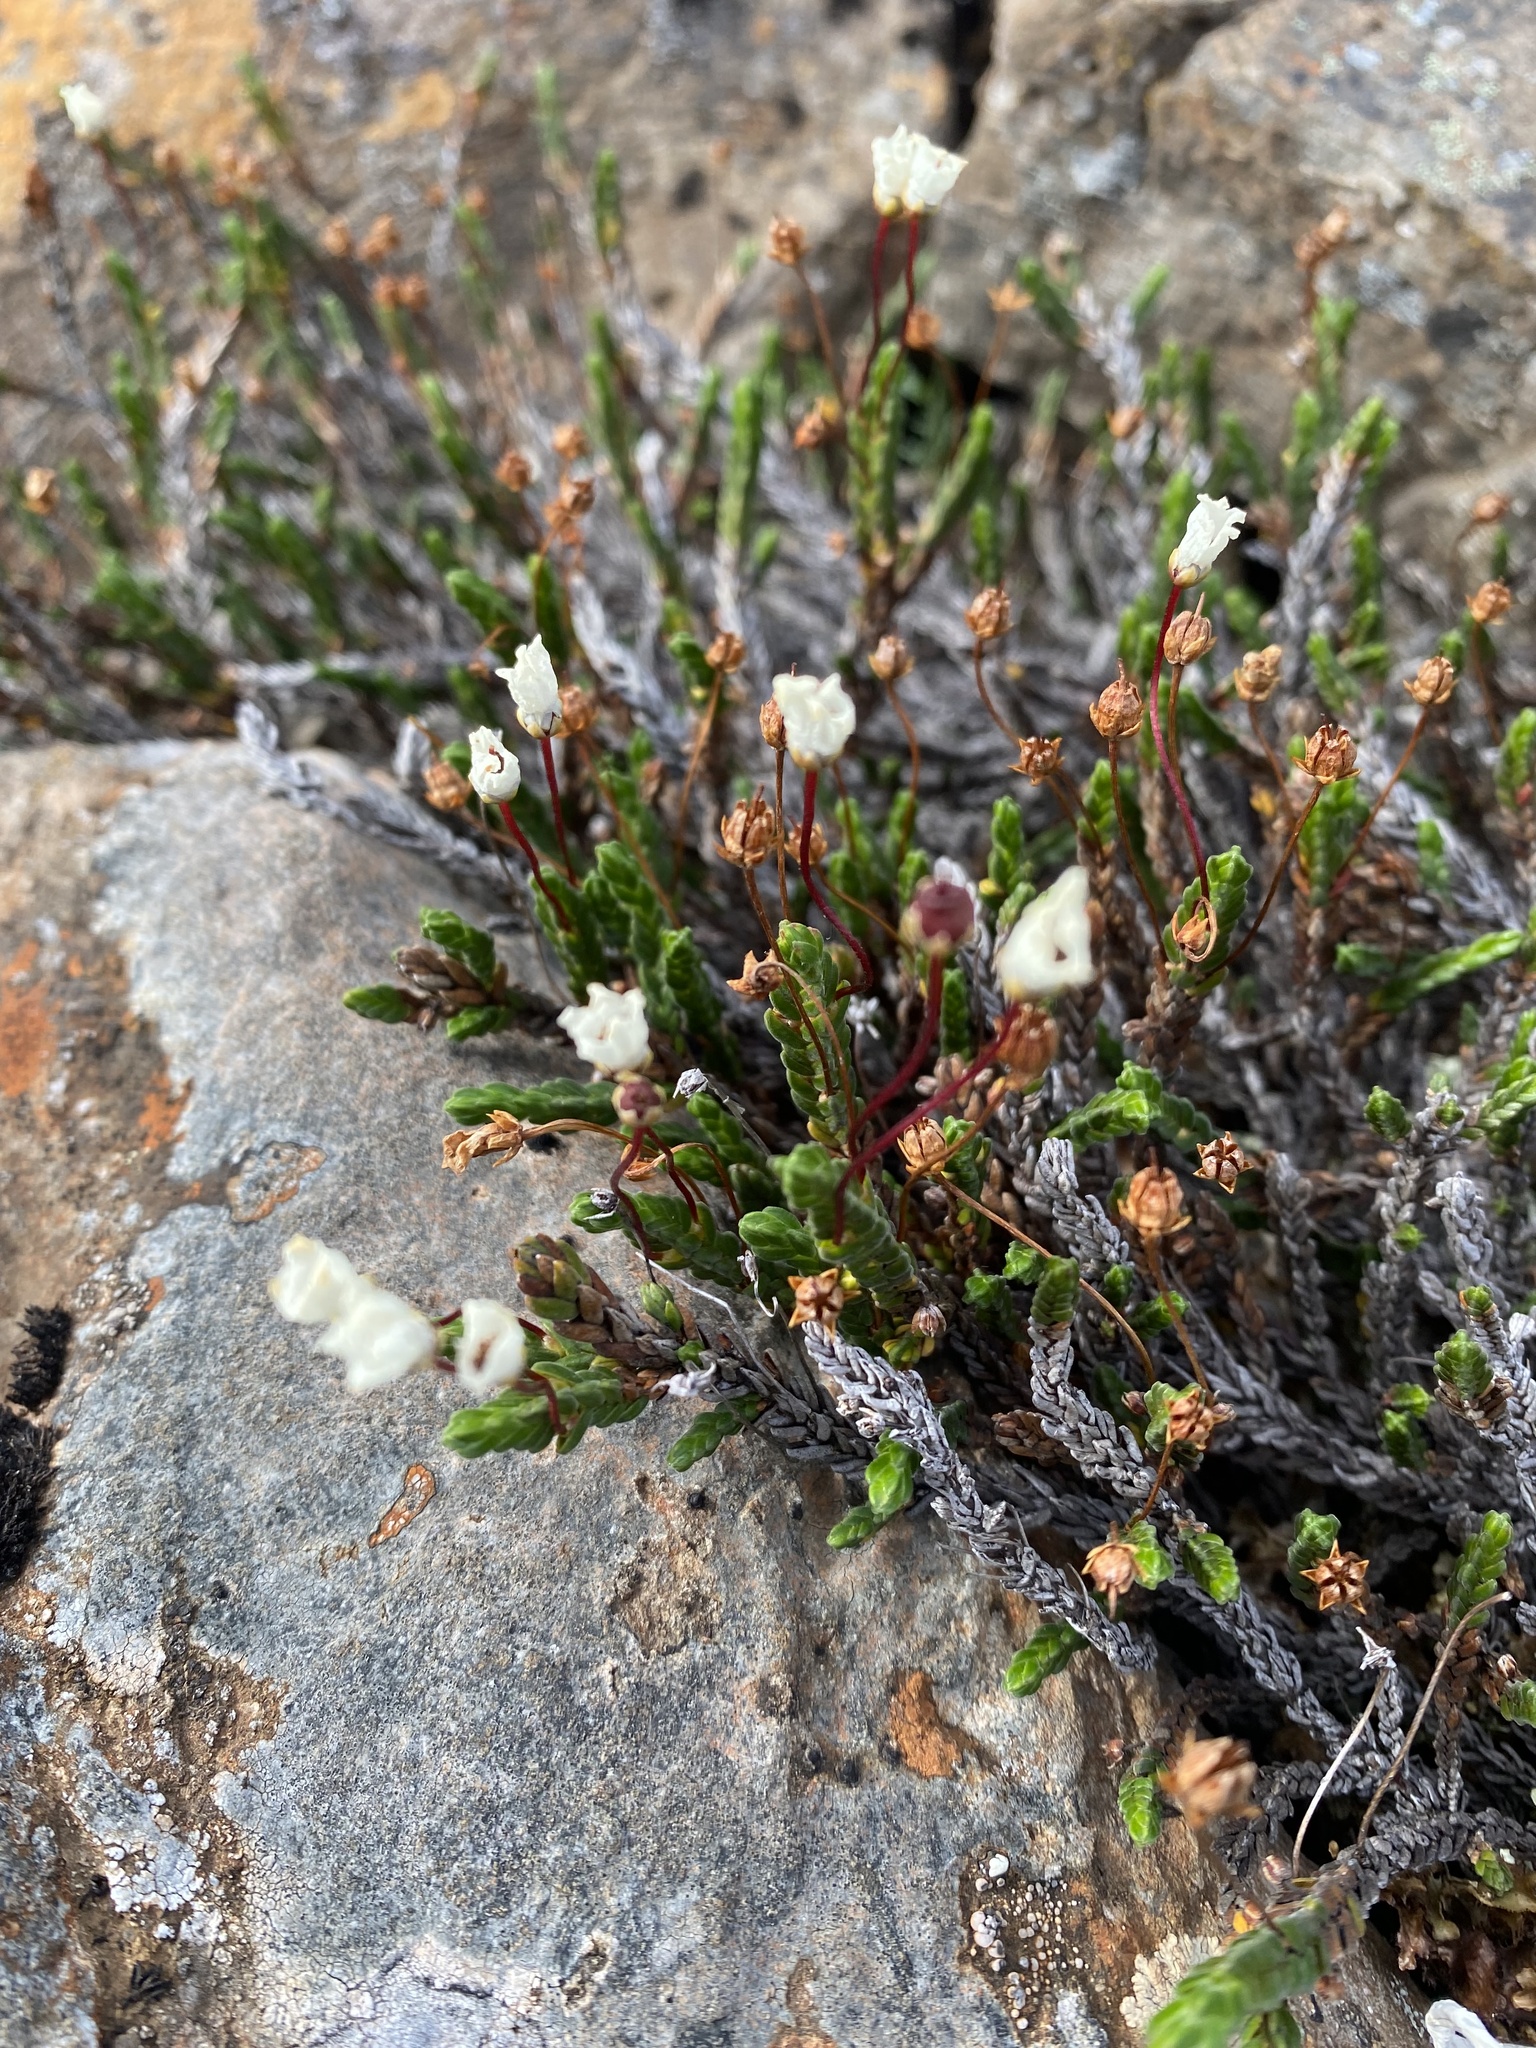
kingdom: Plantae
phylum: Tracheophyta
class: Magnoliopsida
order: Ericales
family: Ericaceae
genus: Cassiope
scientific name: Cassiope tetragona
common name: Arctic bell heather
